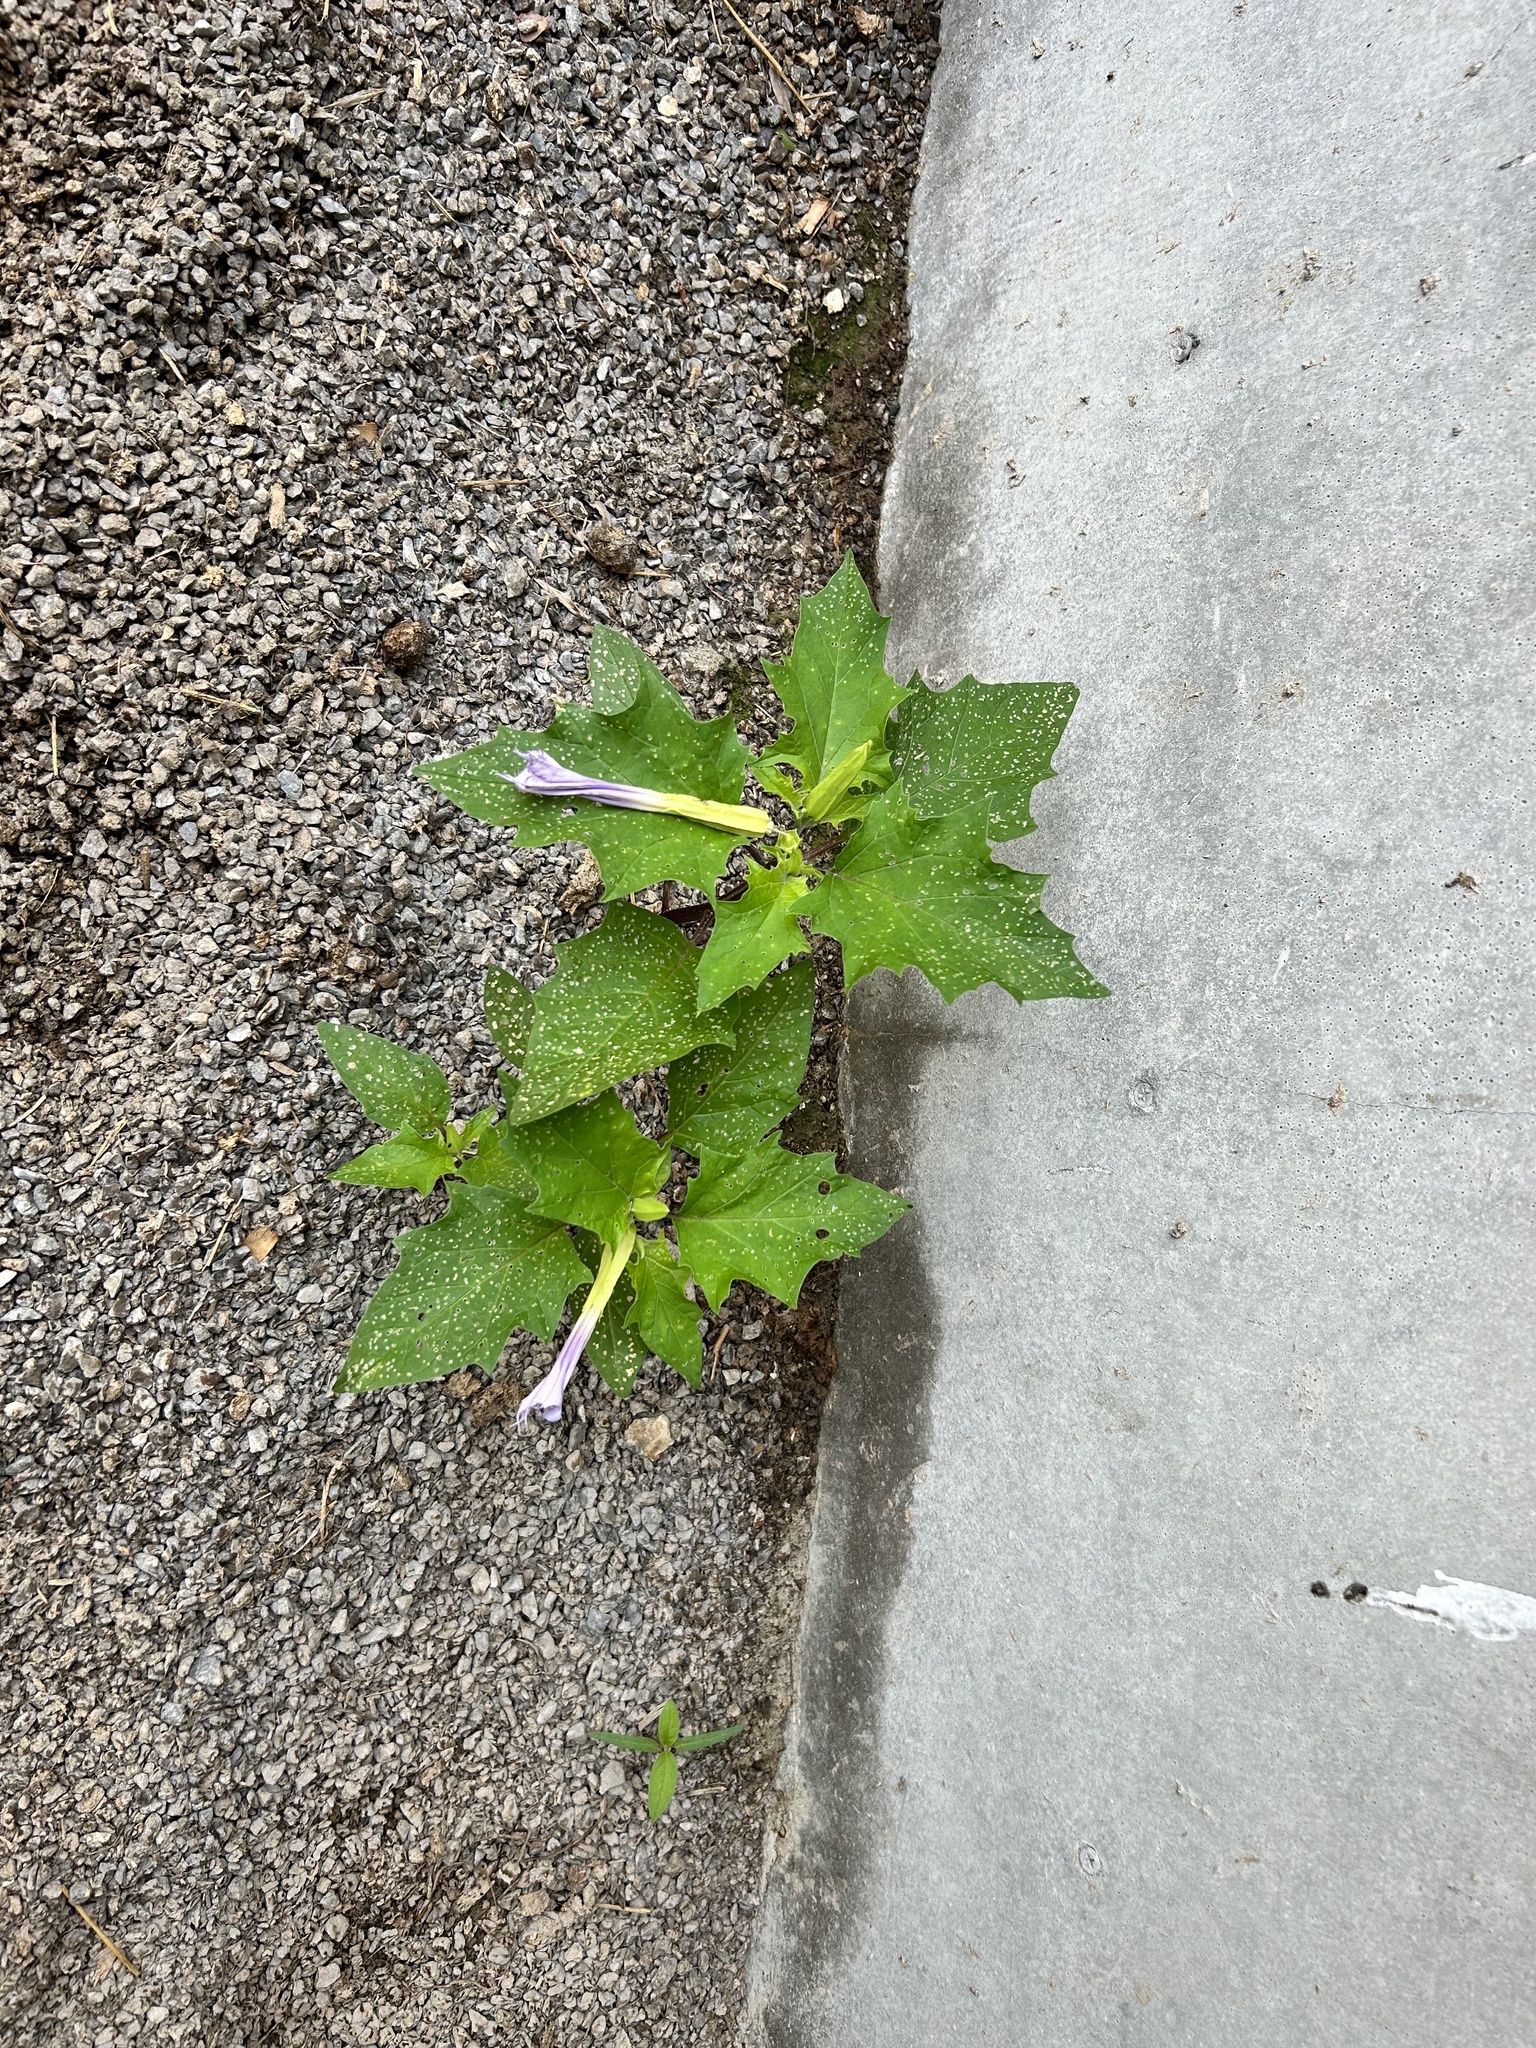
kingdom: Plantae
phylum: Tracheophyta
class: Magnoliopsida
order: Solanales
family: Solanaceae
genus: Datura
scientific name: Datura stramonium
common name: Thorn-apple
